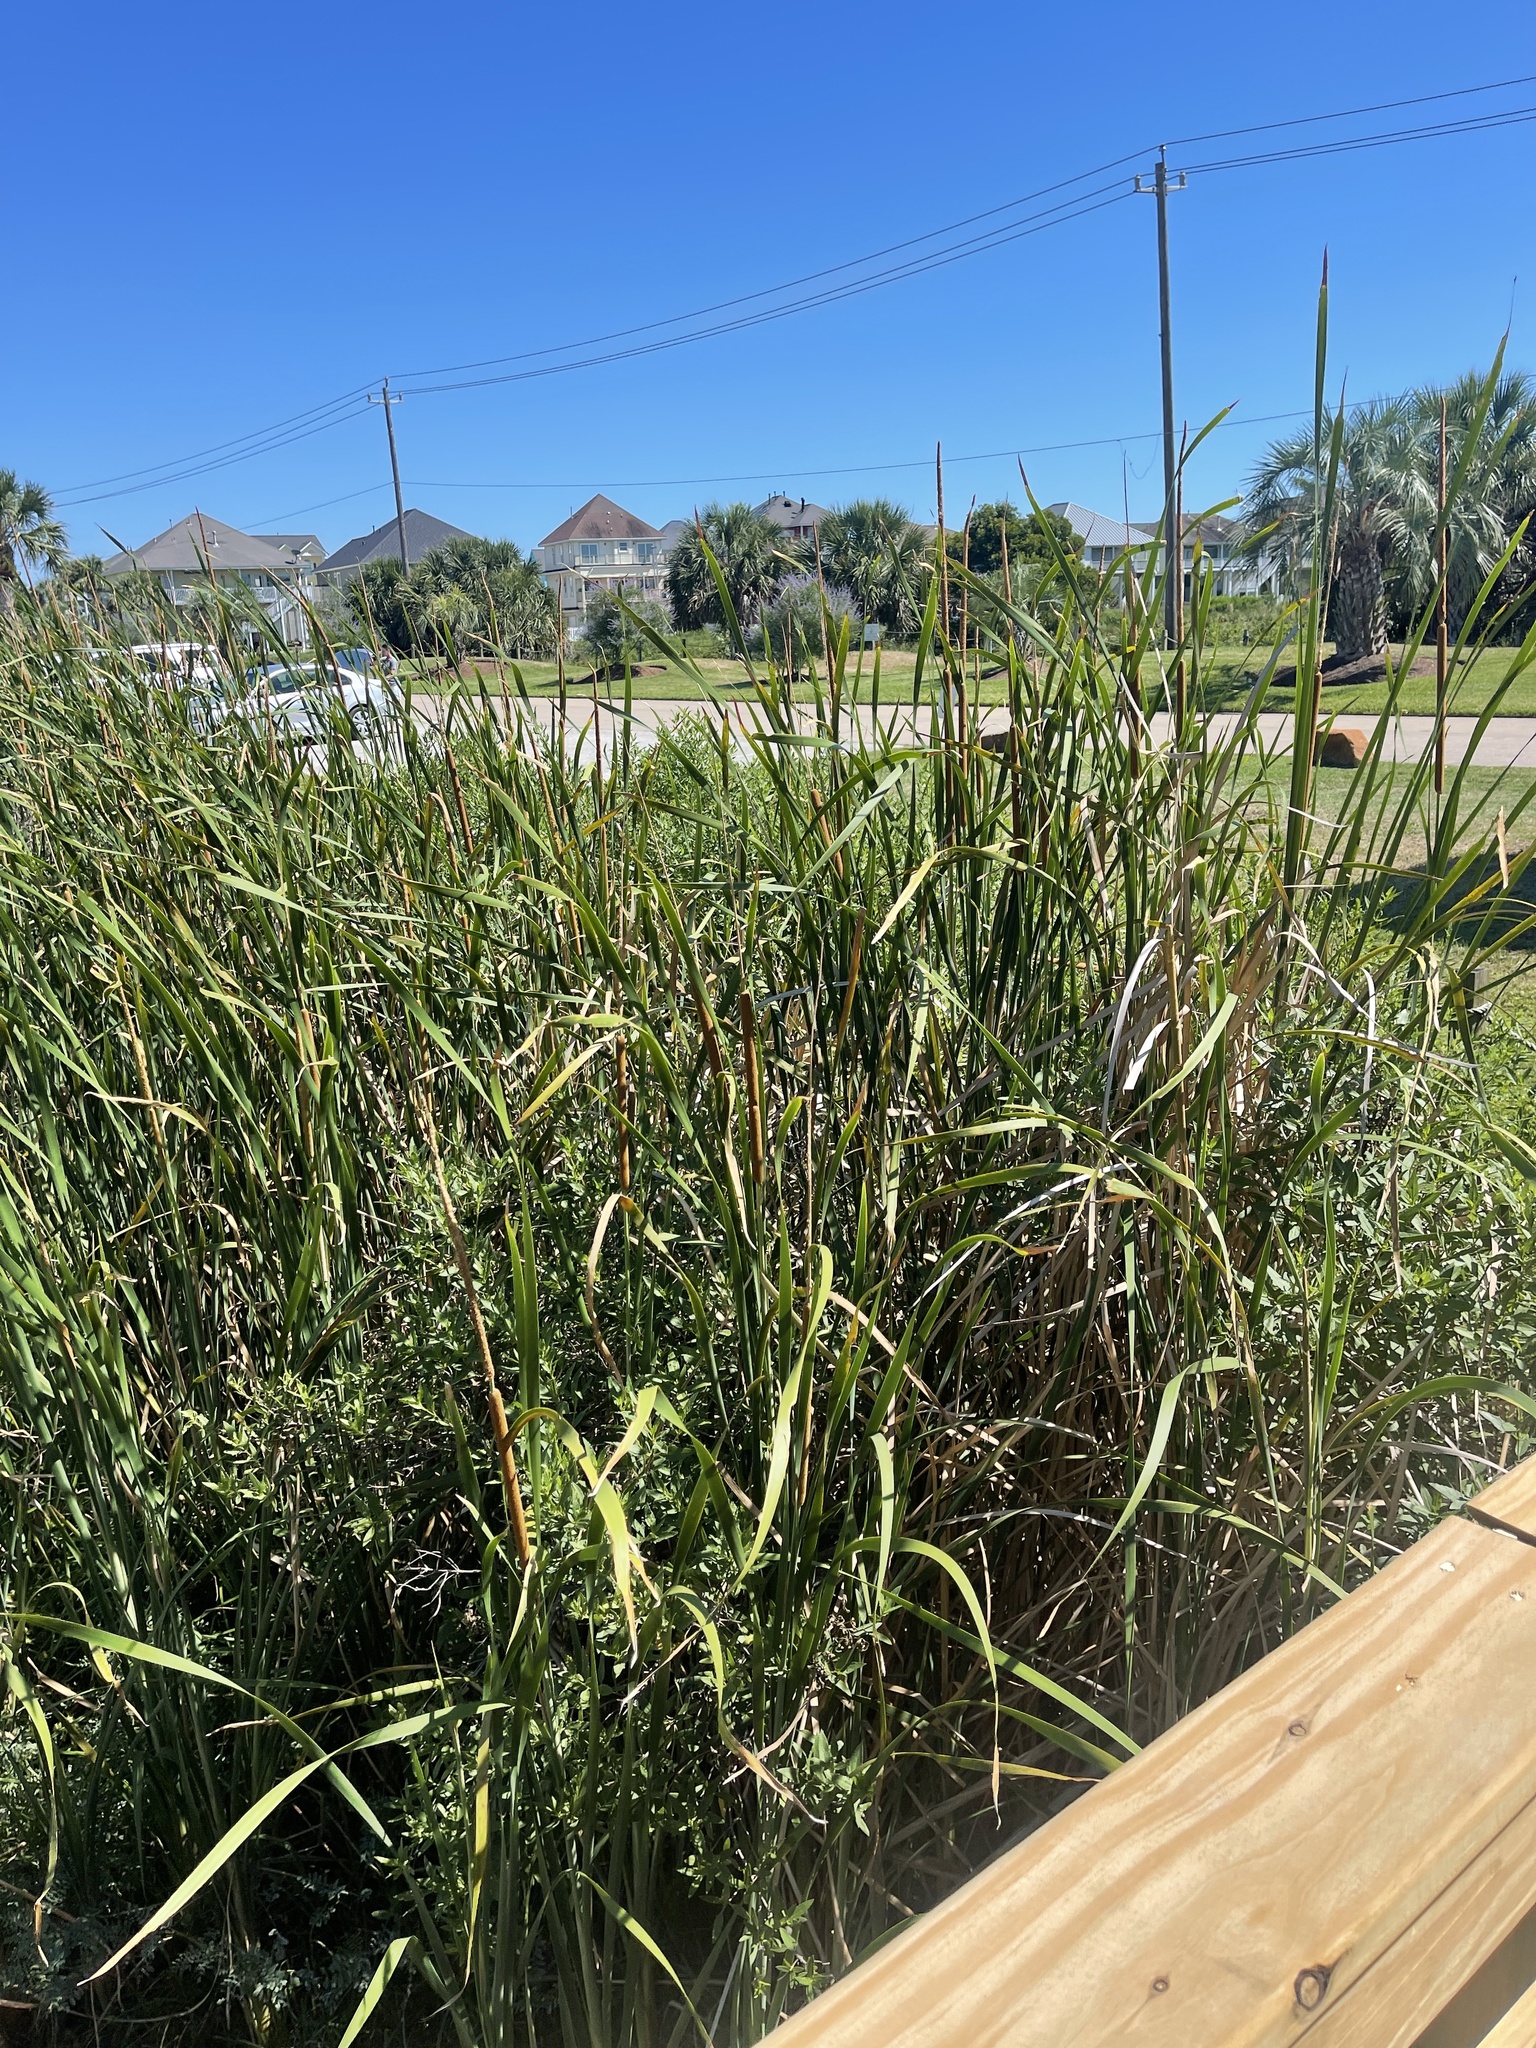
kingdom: Plantae
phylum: Tracheophyta
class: Liliopsida
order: Poales
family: Typhaceae
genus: Typha
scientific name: Typha domingensis
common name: Southern cattail
